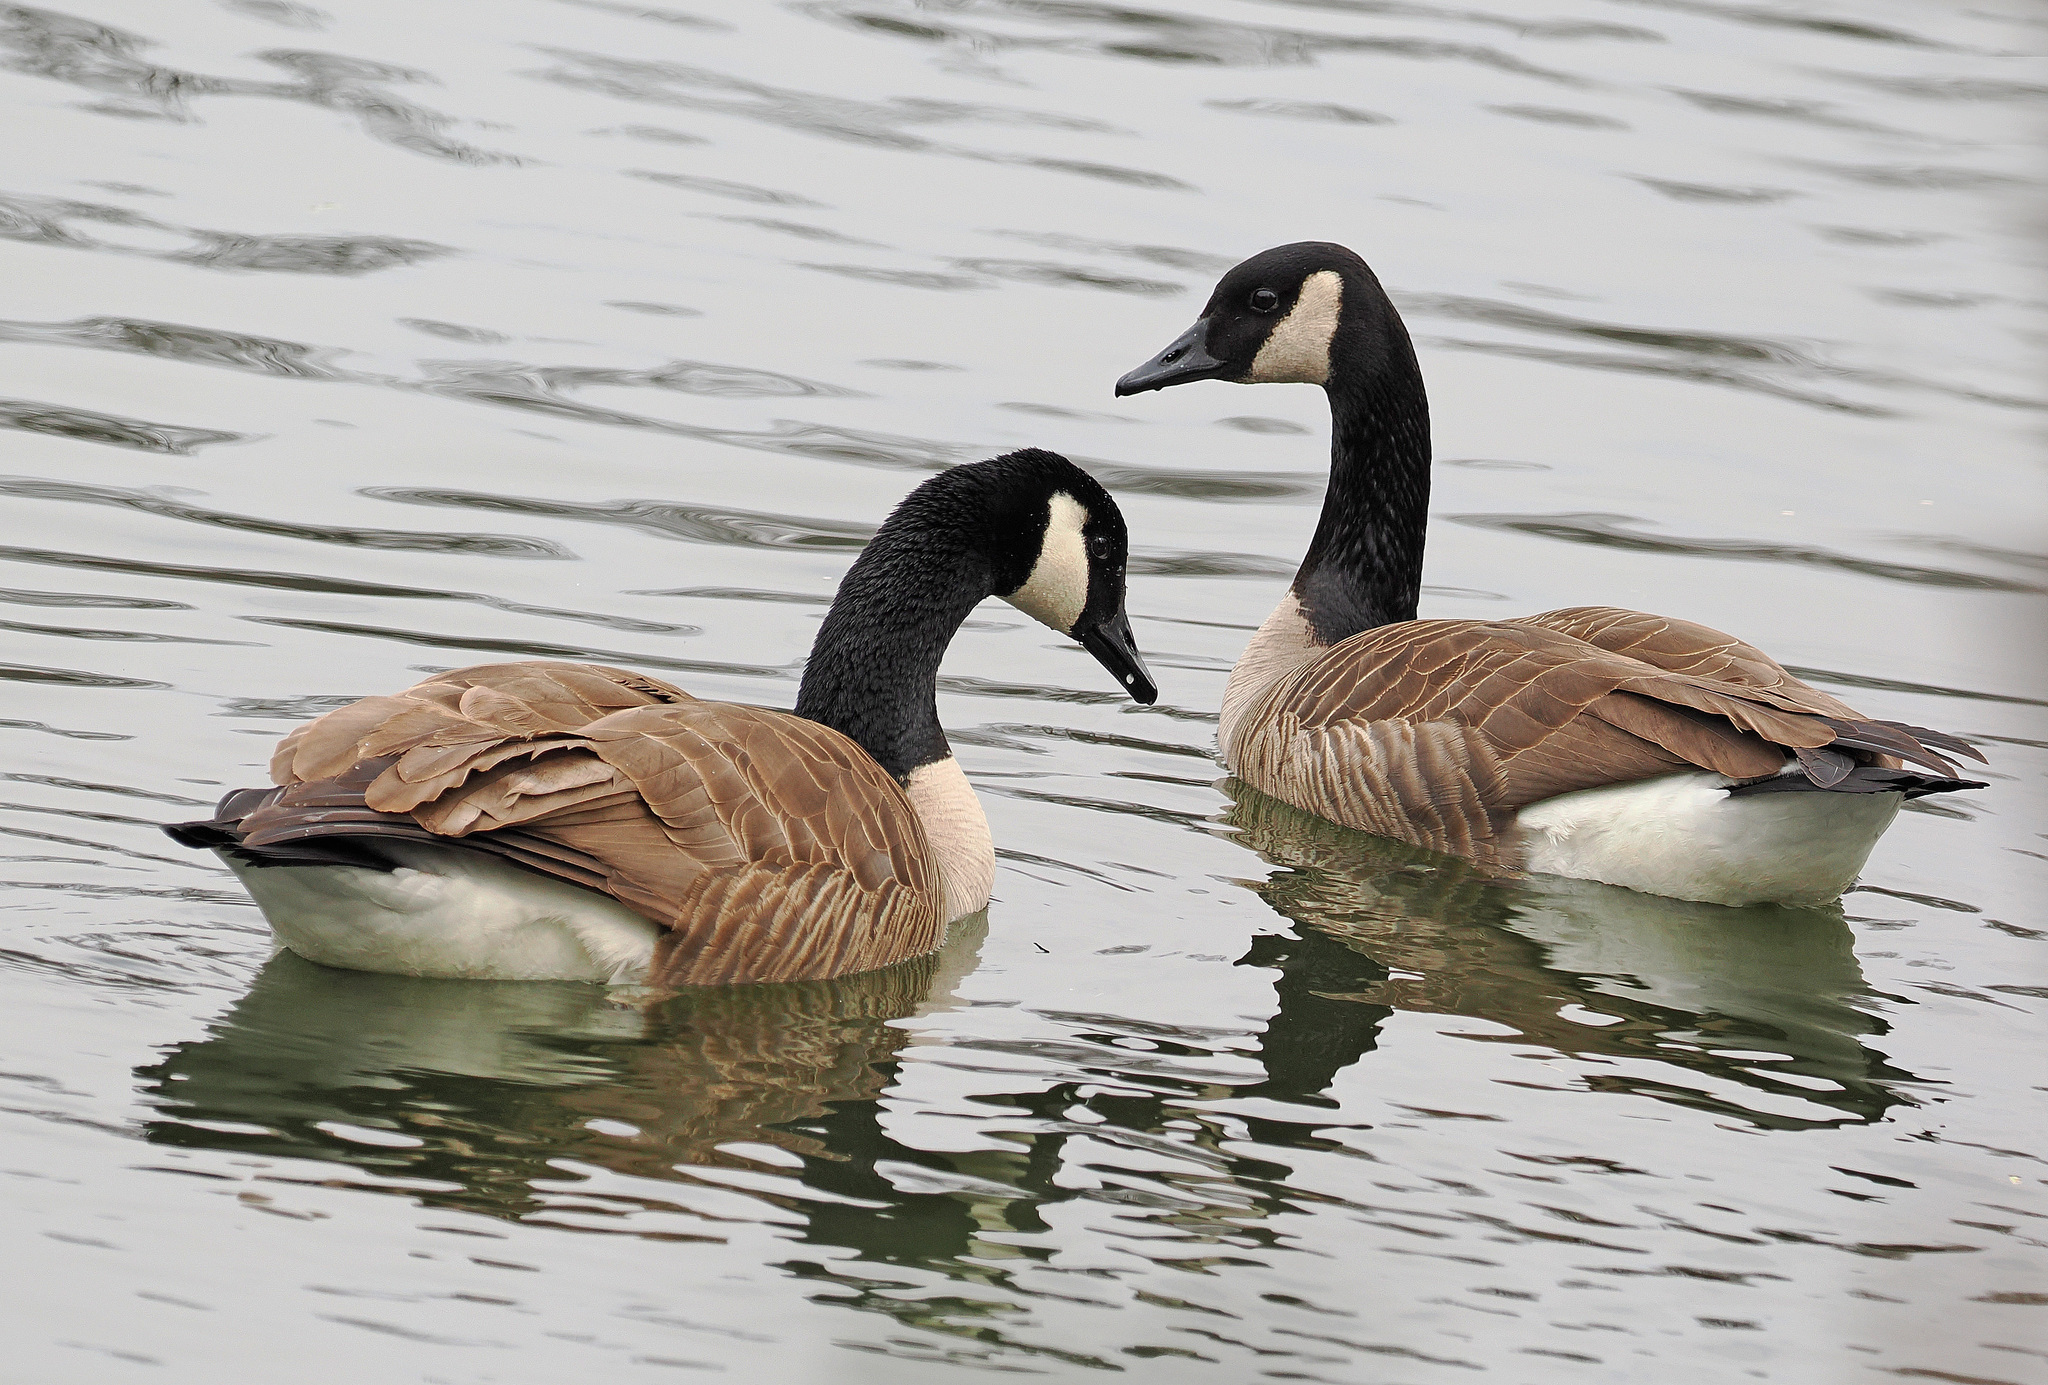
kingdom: Animalia
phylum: Chordata
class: Aves
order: Anseriformes
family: Anatidae
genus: Branta
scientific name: Branta canadensis
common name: Canada goose
